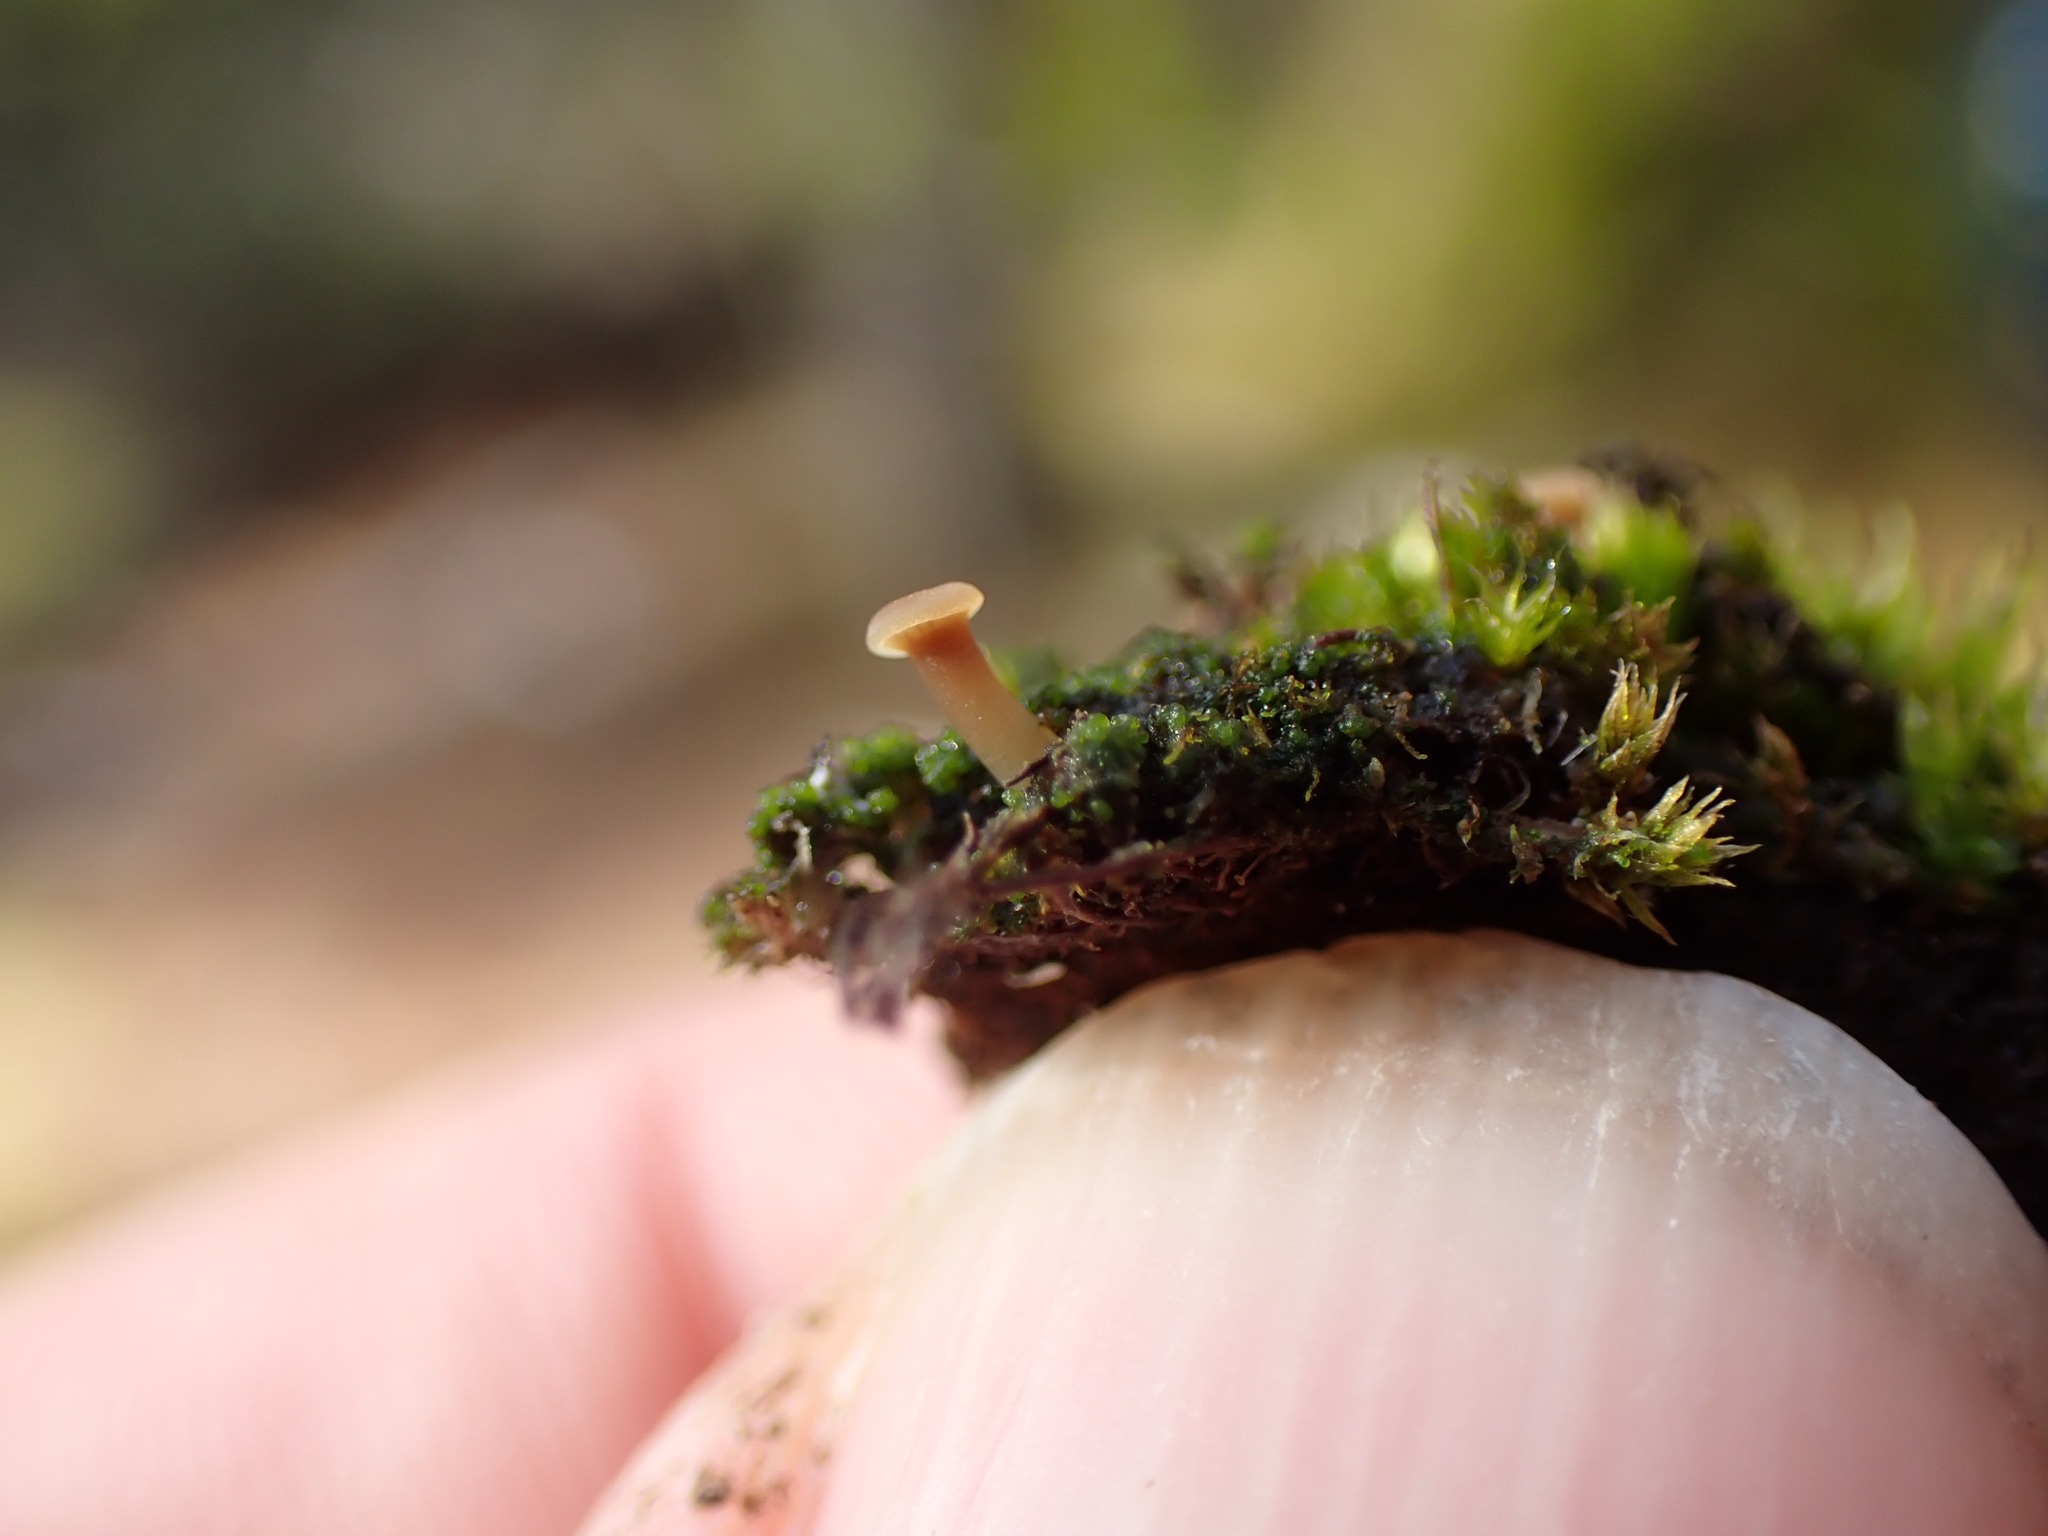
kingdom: Fungi
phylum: Basidiomycota
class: Agaricomycetes
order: Agaricales
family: Hygrophoraceae
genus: Lichenomphalia
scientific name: Lichenomphalia
